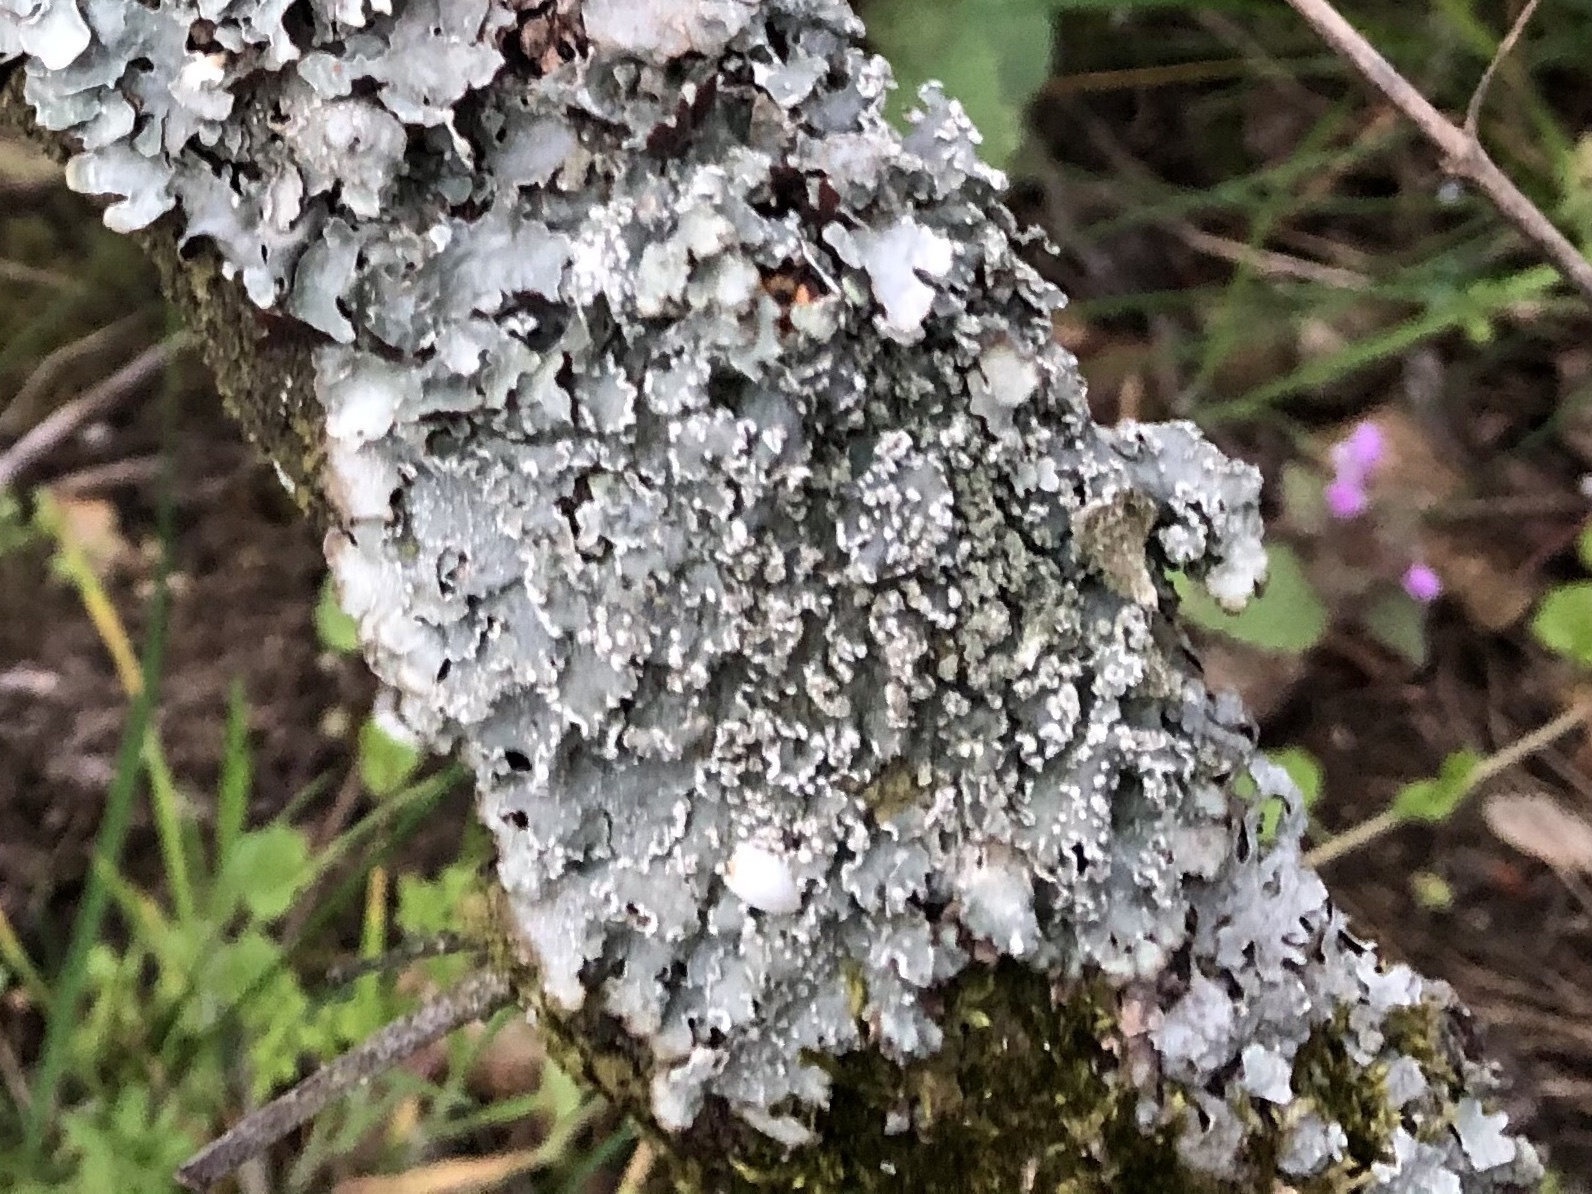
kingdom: Fungi
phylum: Ascomycota
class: Lecanoromycetes
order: Lecanorales
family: Parmeliaceae
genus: Punctelia
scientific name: Punctelia jeckeri
